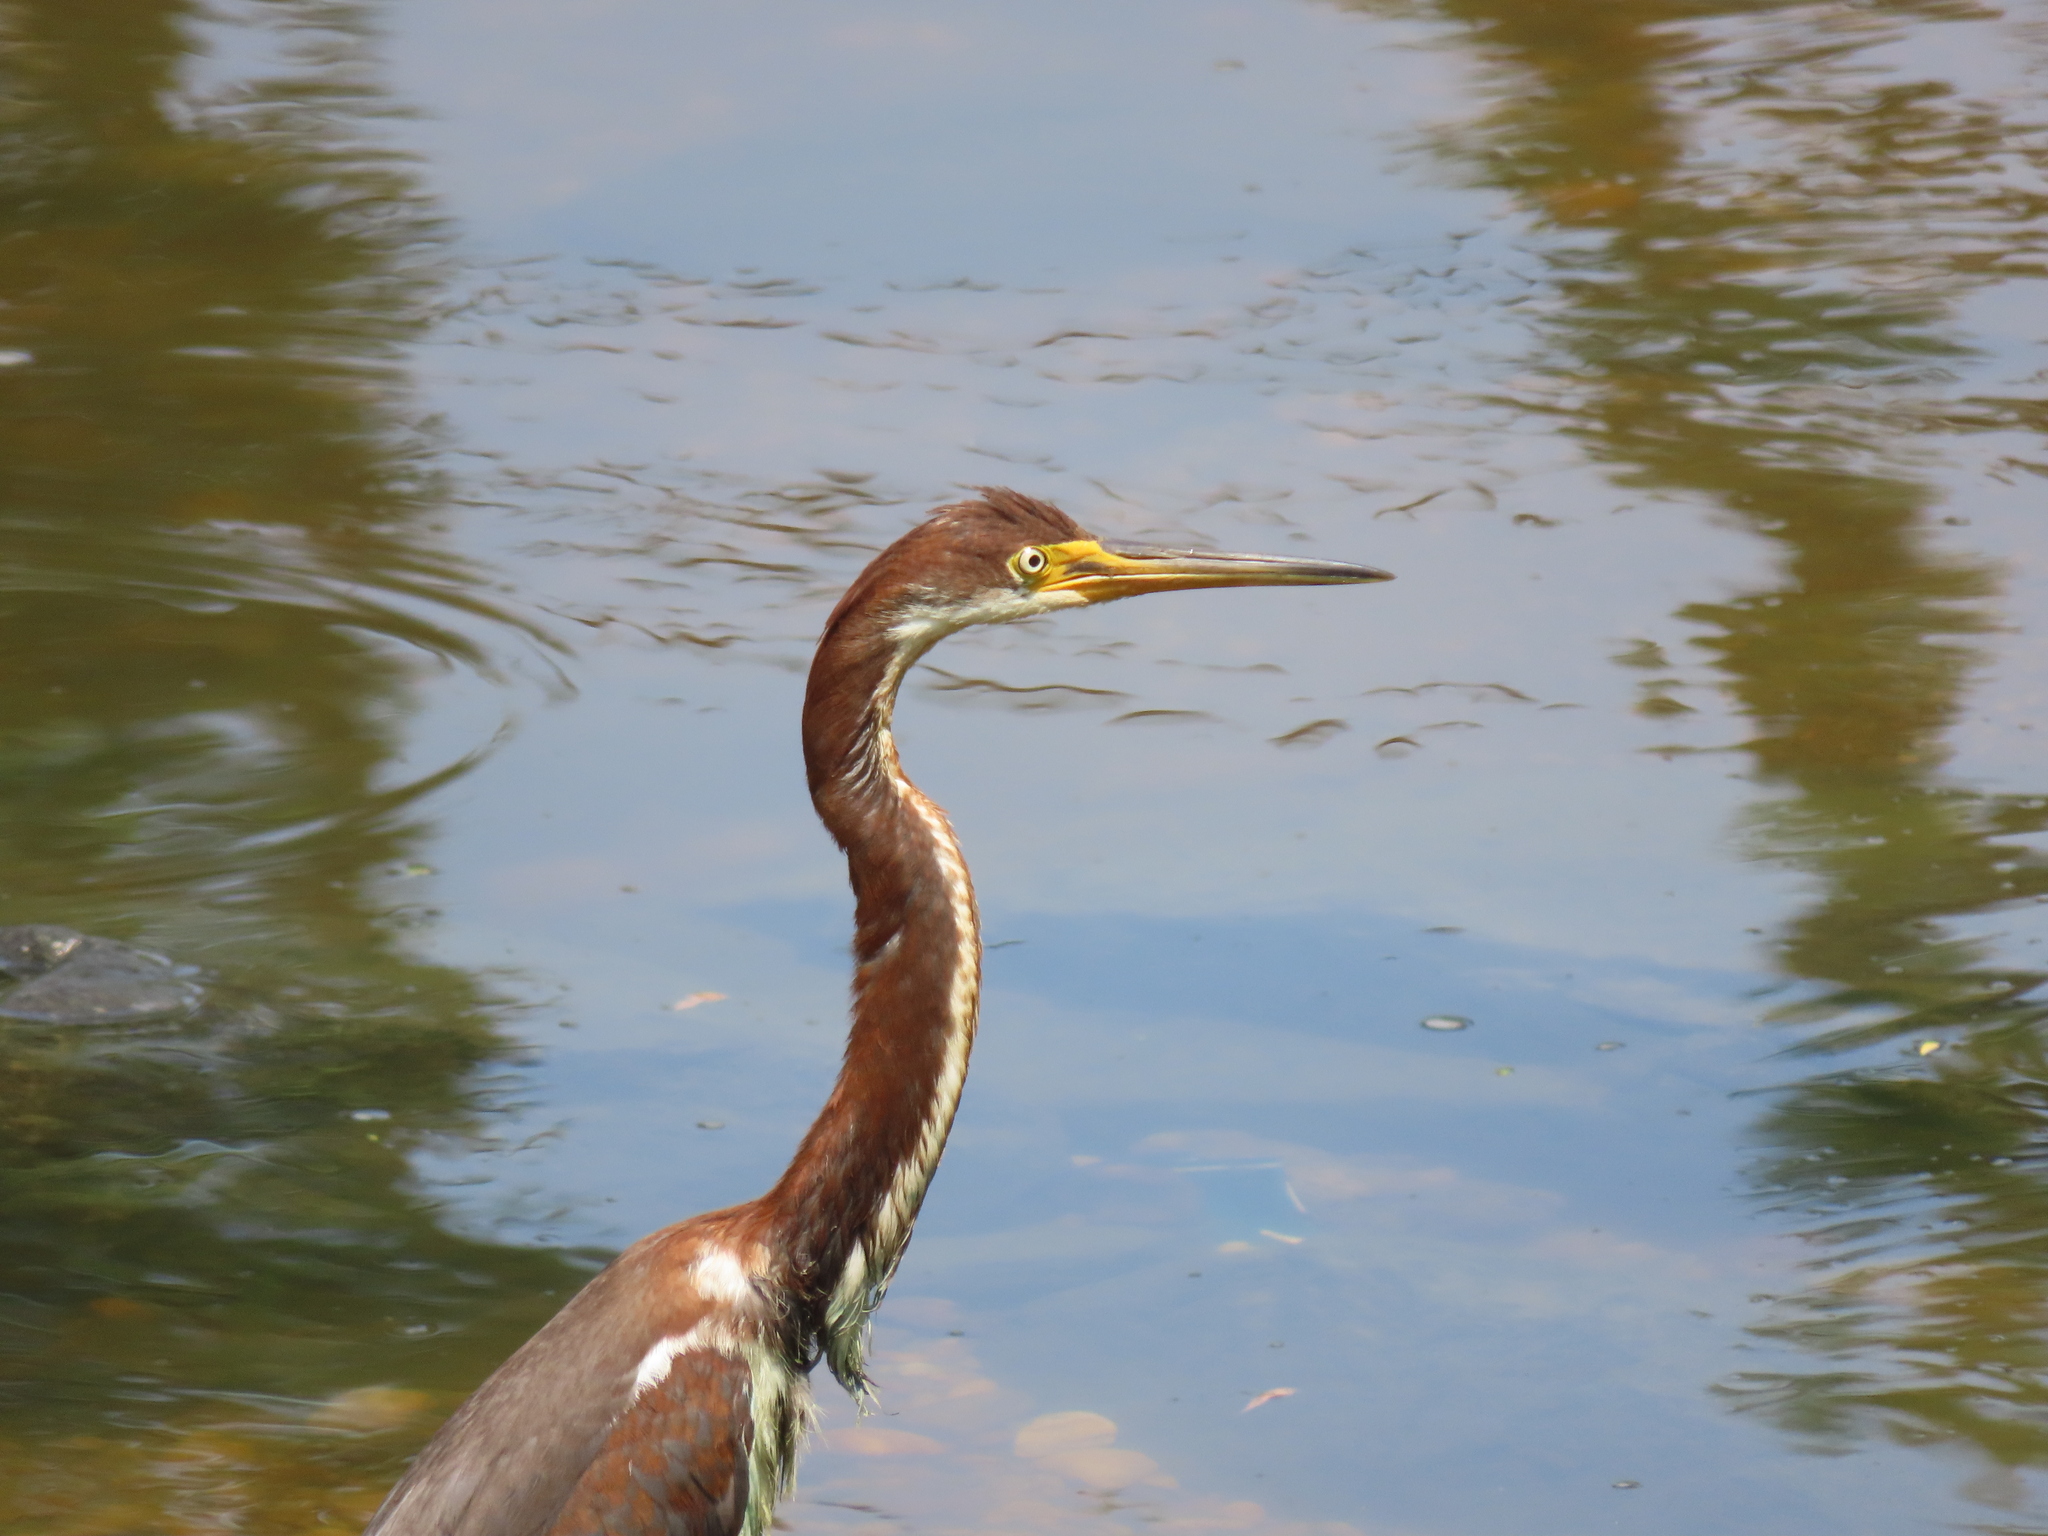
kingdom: Animalia
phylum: Chordata
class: Aves
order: Pelecaniformes
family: Ardeidae
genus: Egretta
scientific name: Egretta tricolor
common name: Tricolored heron
